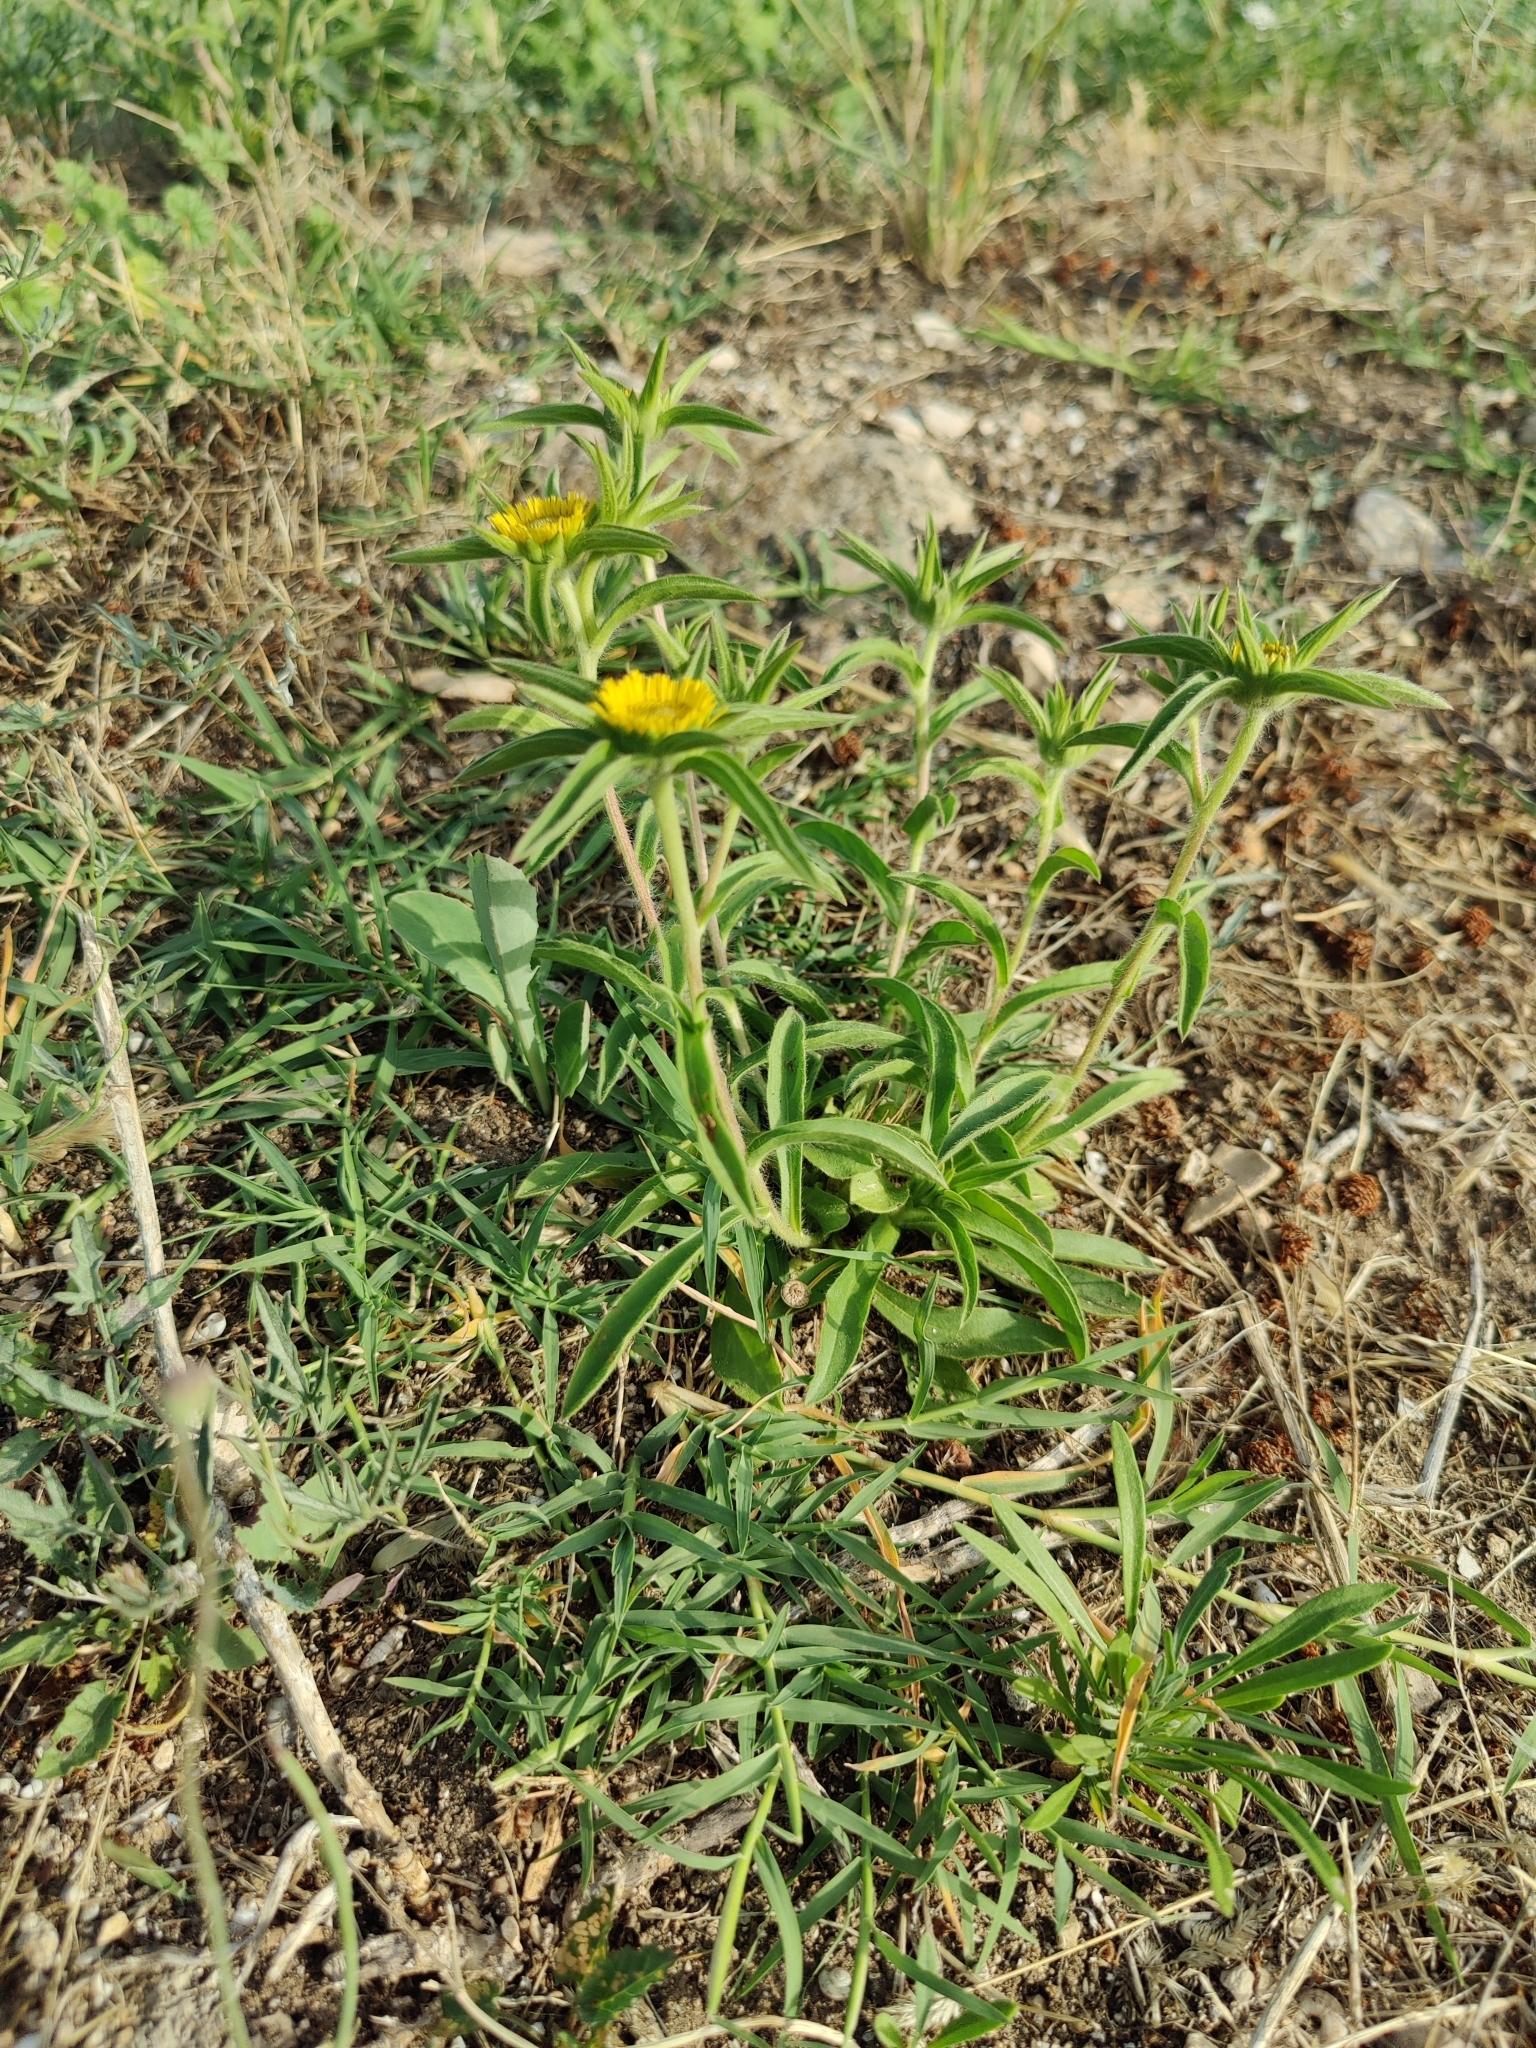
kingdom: Plantae
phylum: Tracheophyta
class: Magnoliopsida
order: Asterales
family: Asteraceae
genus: Pallenis
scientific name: Pallenis spinosa
